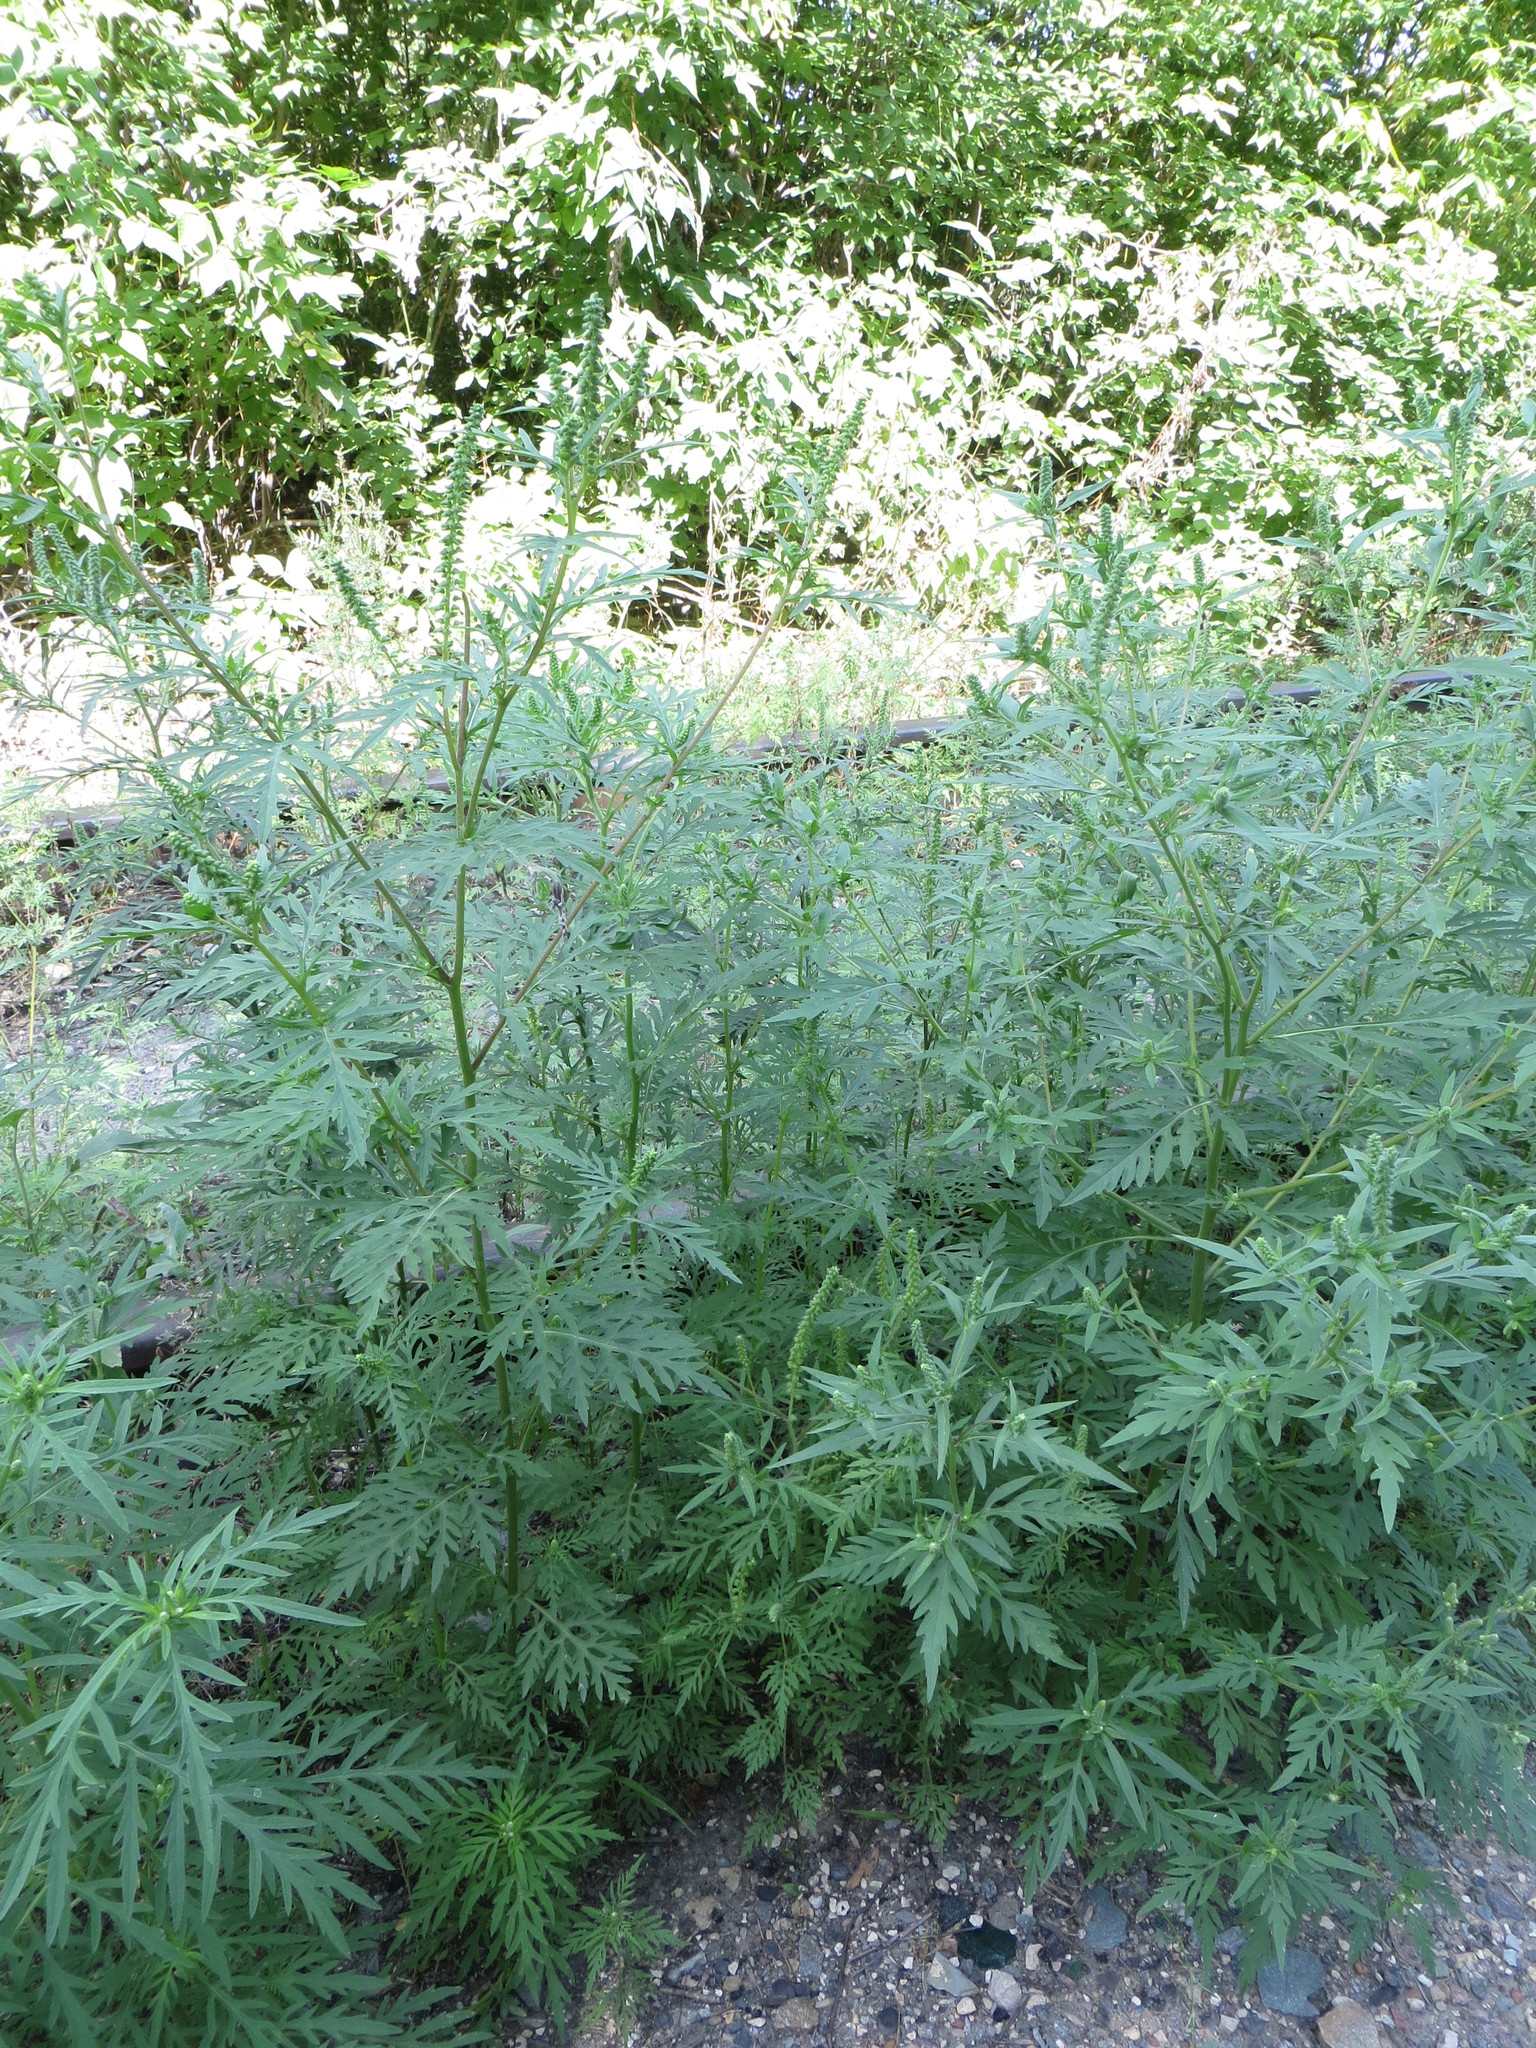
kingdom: Plantae
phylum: Tracheophyta
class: Magnoliopsida
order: Asterales
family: Asteraceae
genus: Ambrosia
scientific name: Ambrosia artemisiifolia
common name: Annual ragweed
